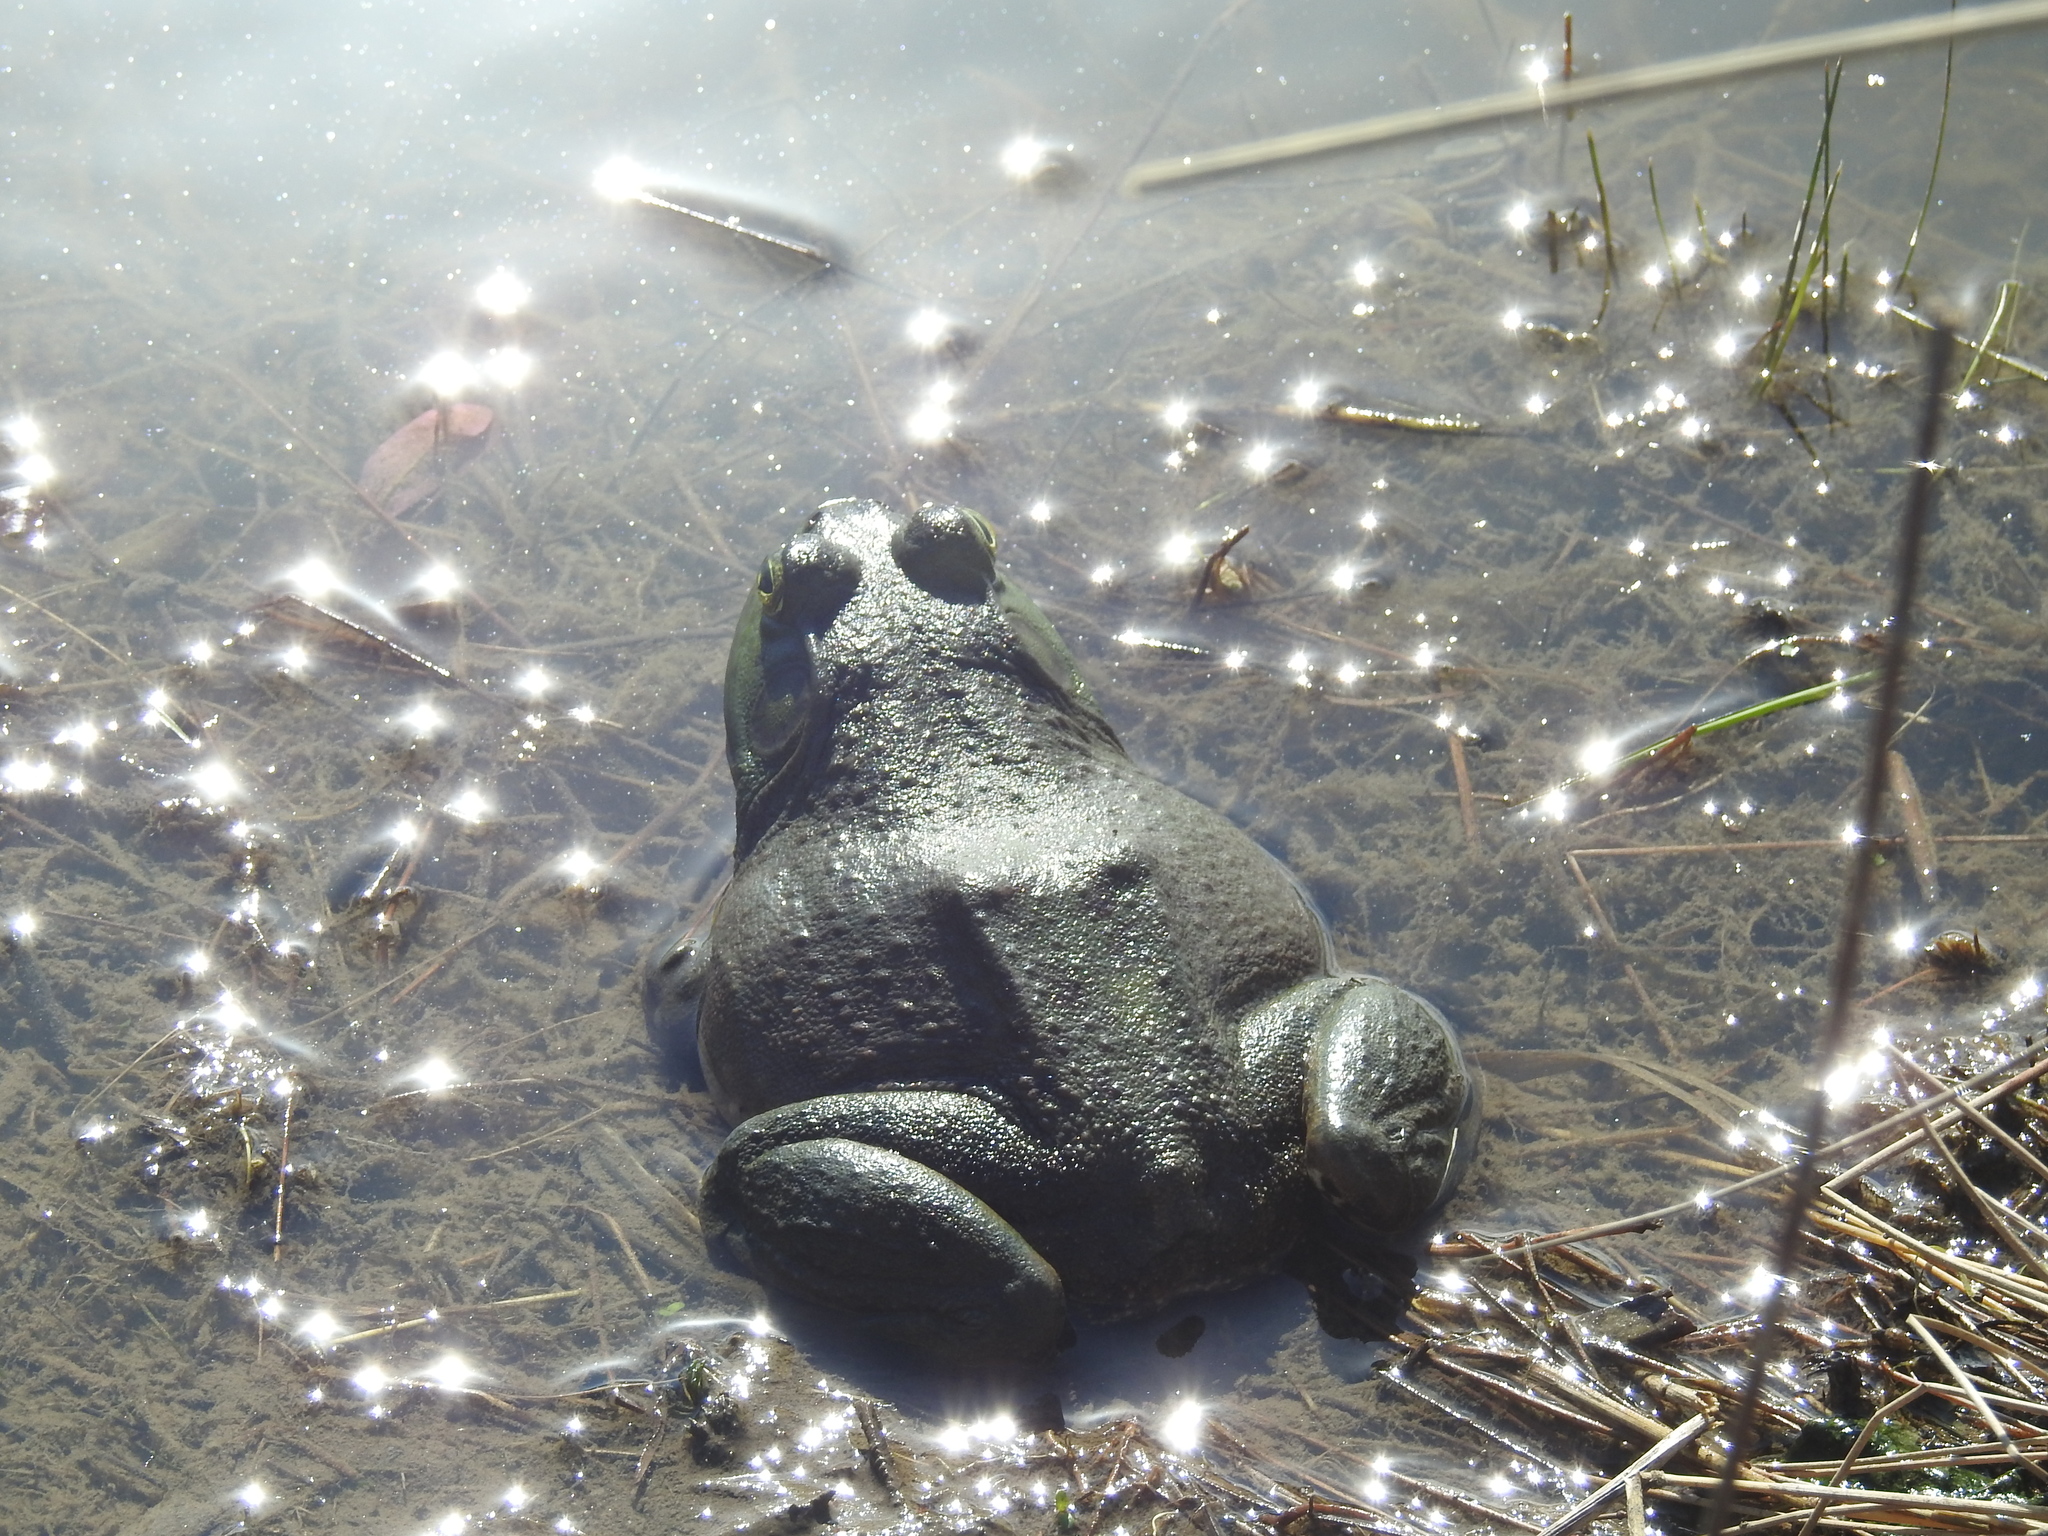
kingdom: Animalia
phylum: Chordata
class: Amphibia
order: Anura
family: Ranidae
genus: Lithobates
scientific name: Lithobates catesbeianus
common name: American bullfrog
